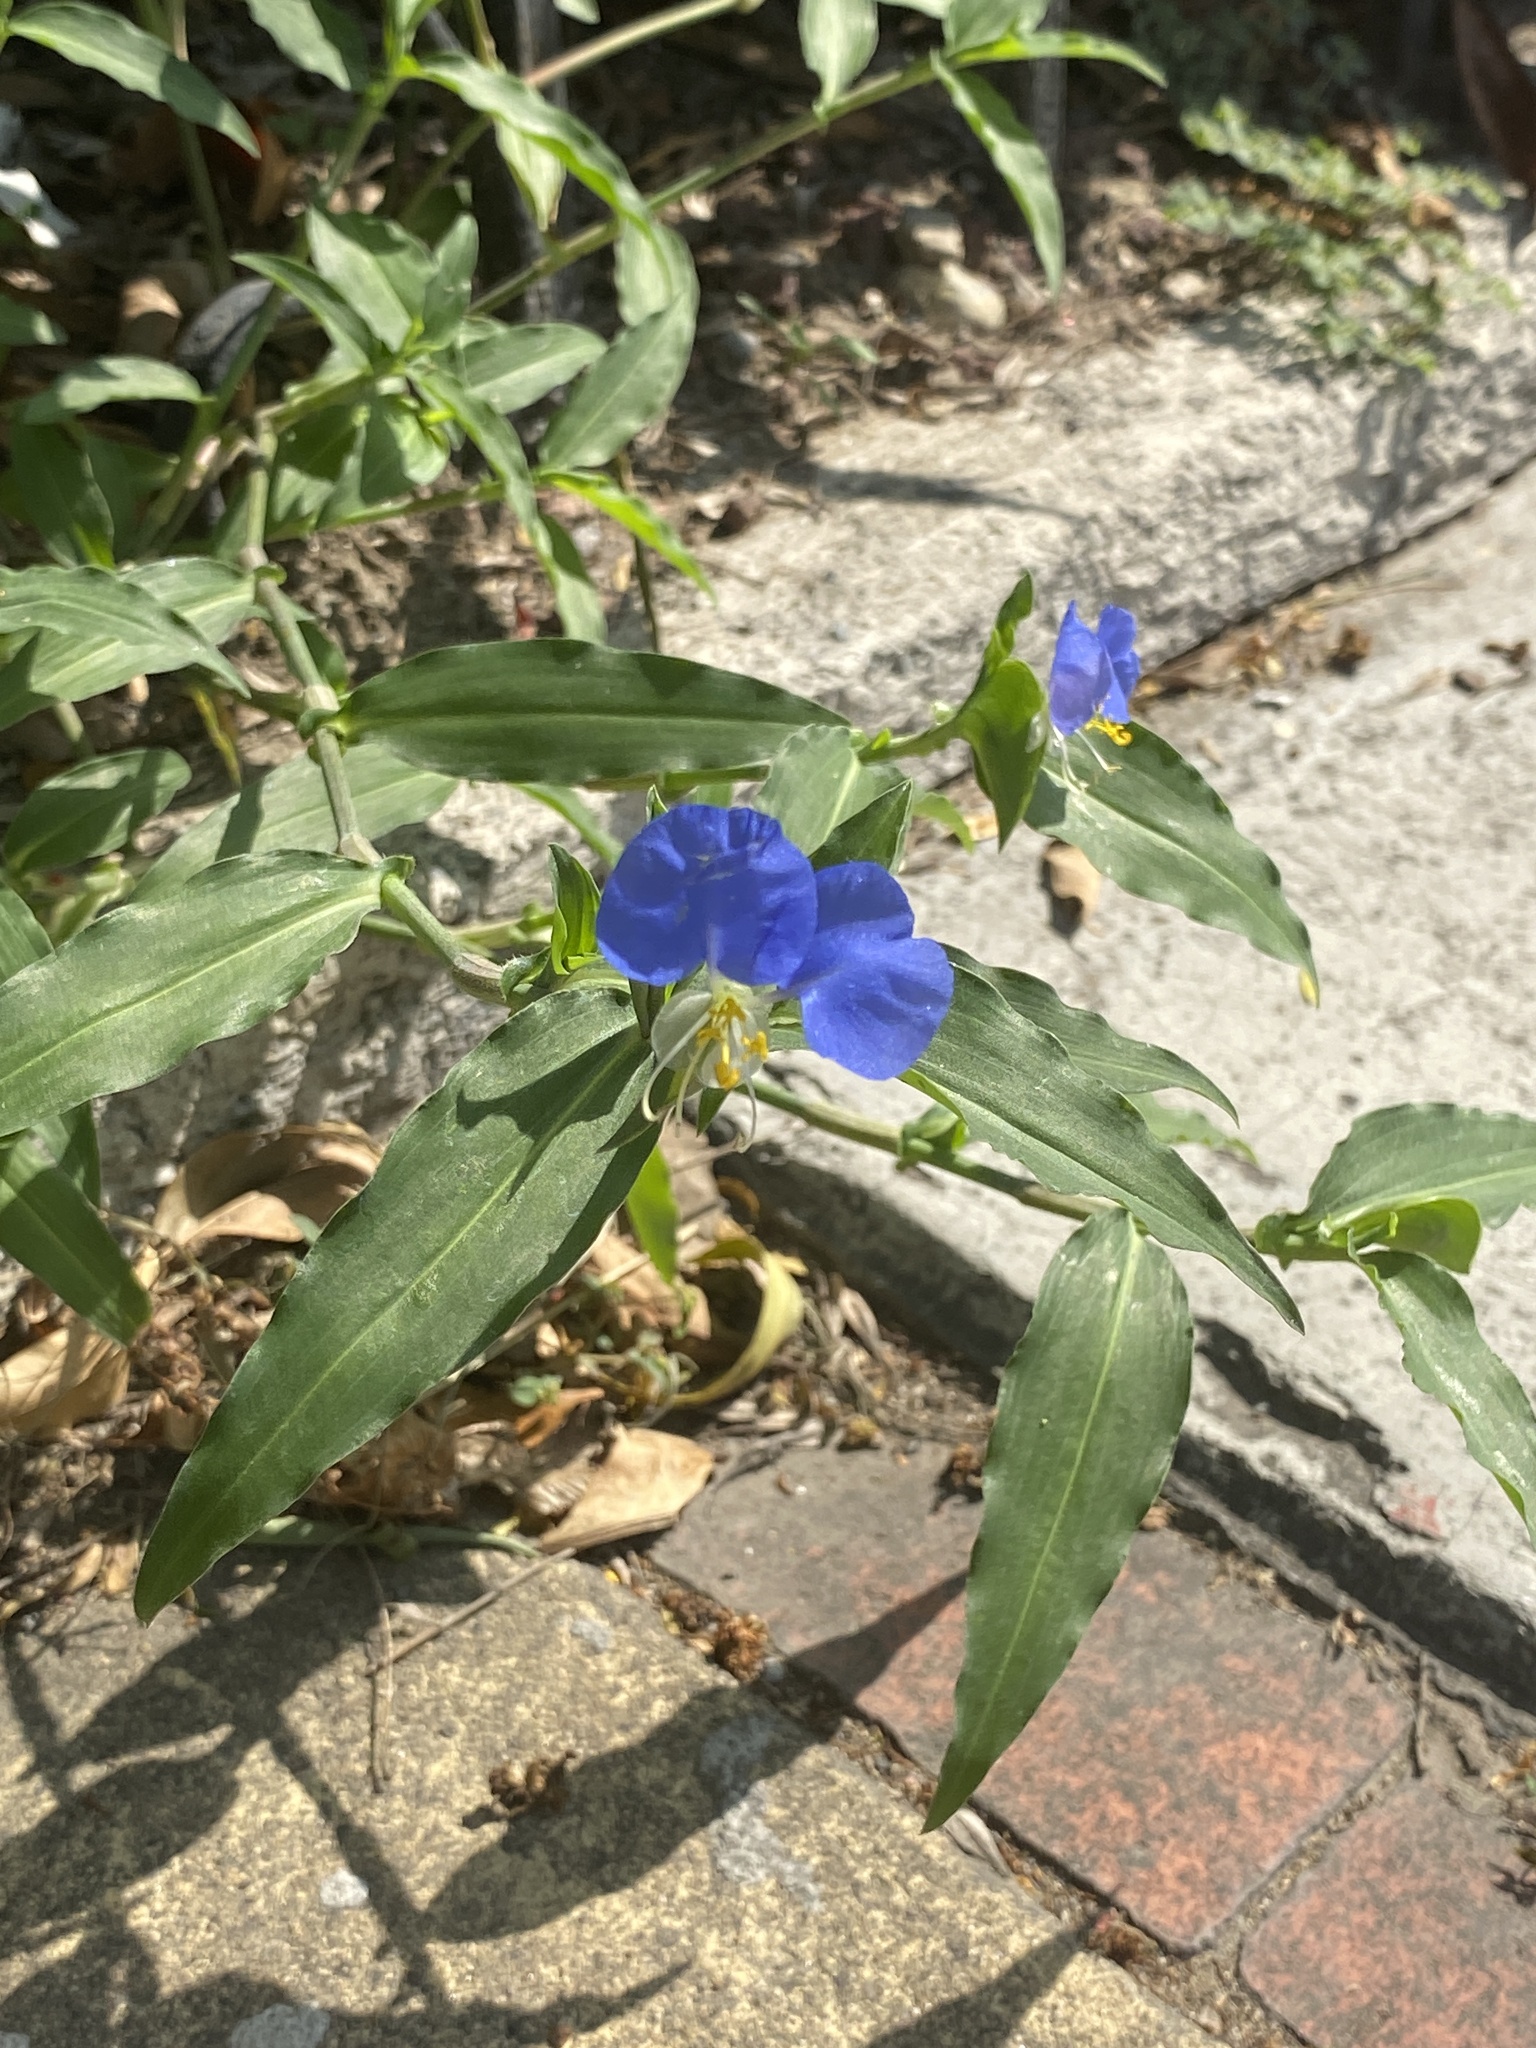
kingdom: Plantae
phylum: Tracheophyta
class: Liliopsida
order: Commelinales
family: Commelinaceae
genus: Commelina
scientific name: Commelina erecta
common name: Blousel blommetjie
